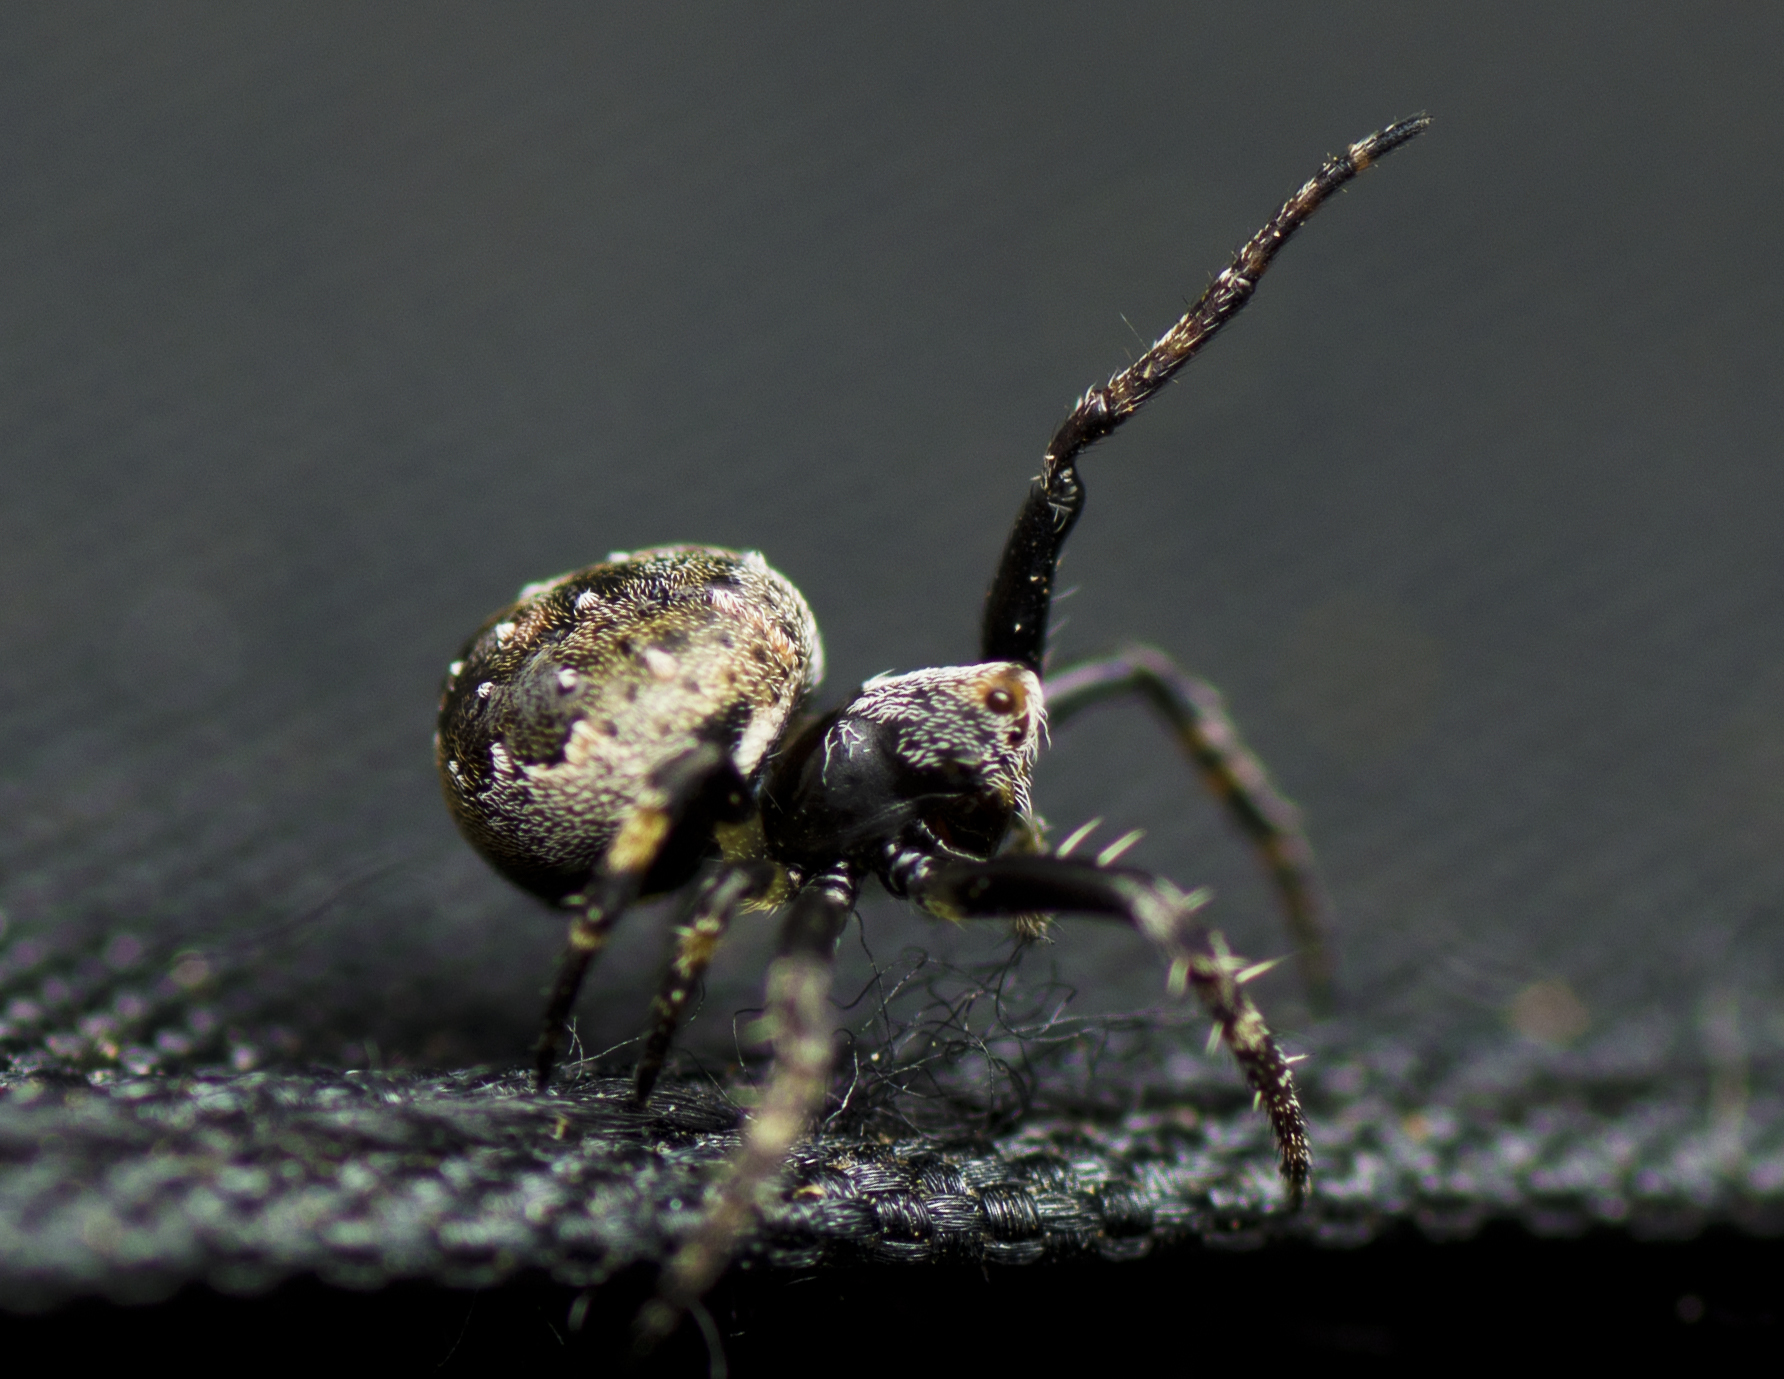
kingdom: Animalia
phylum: Arthropoda
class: Arachnida
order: Araneae
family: Araneidae
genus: Araneus
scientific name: Araneus rotundulus
